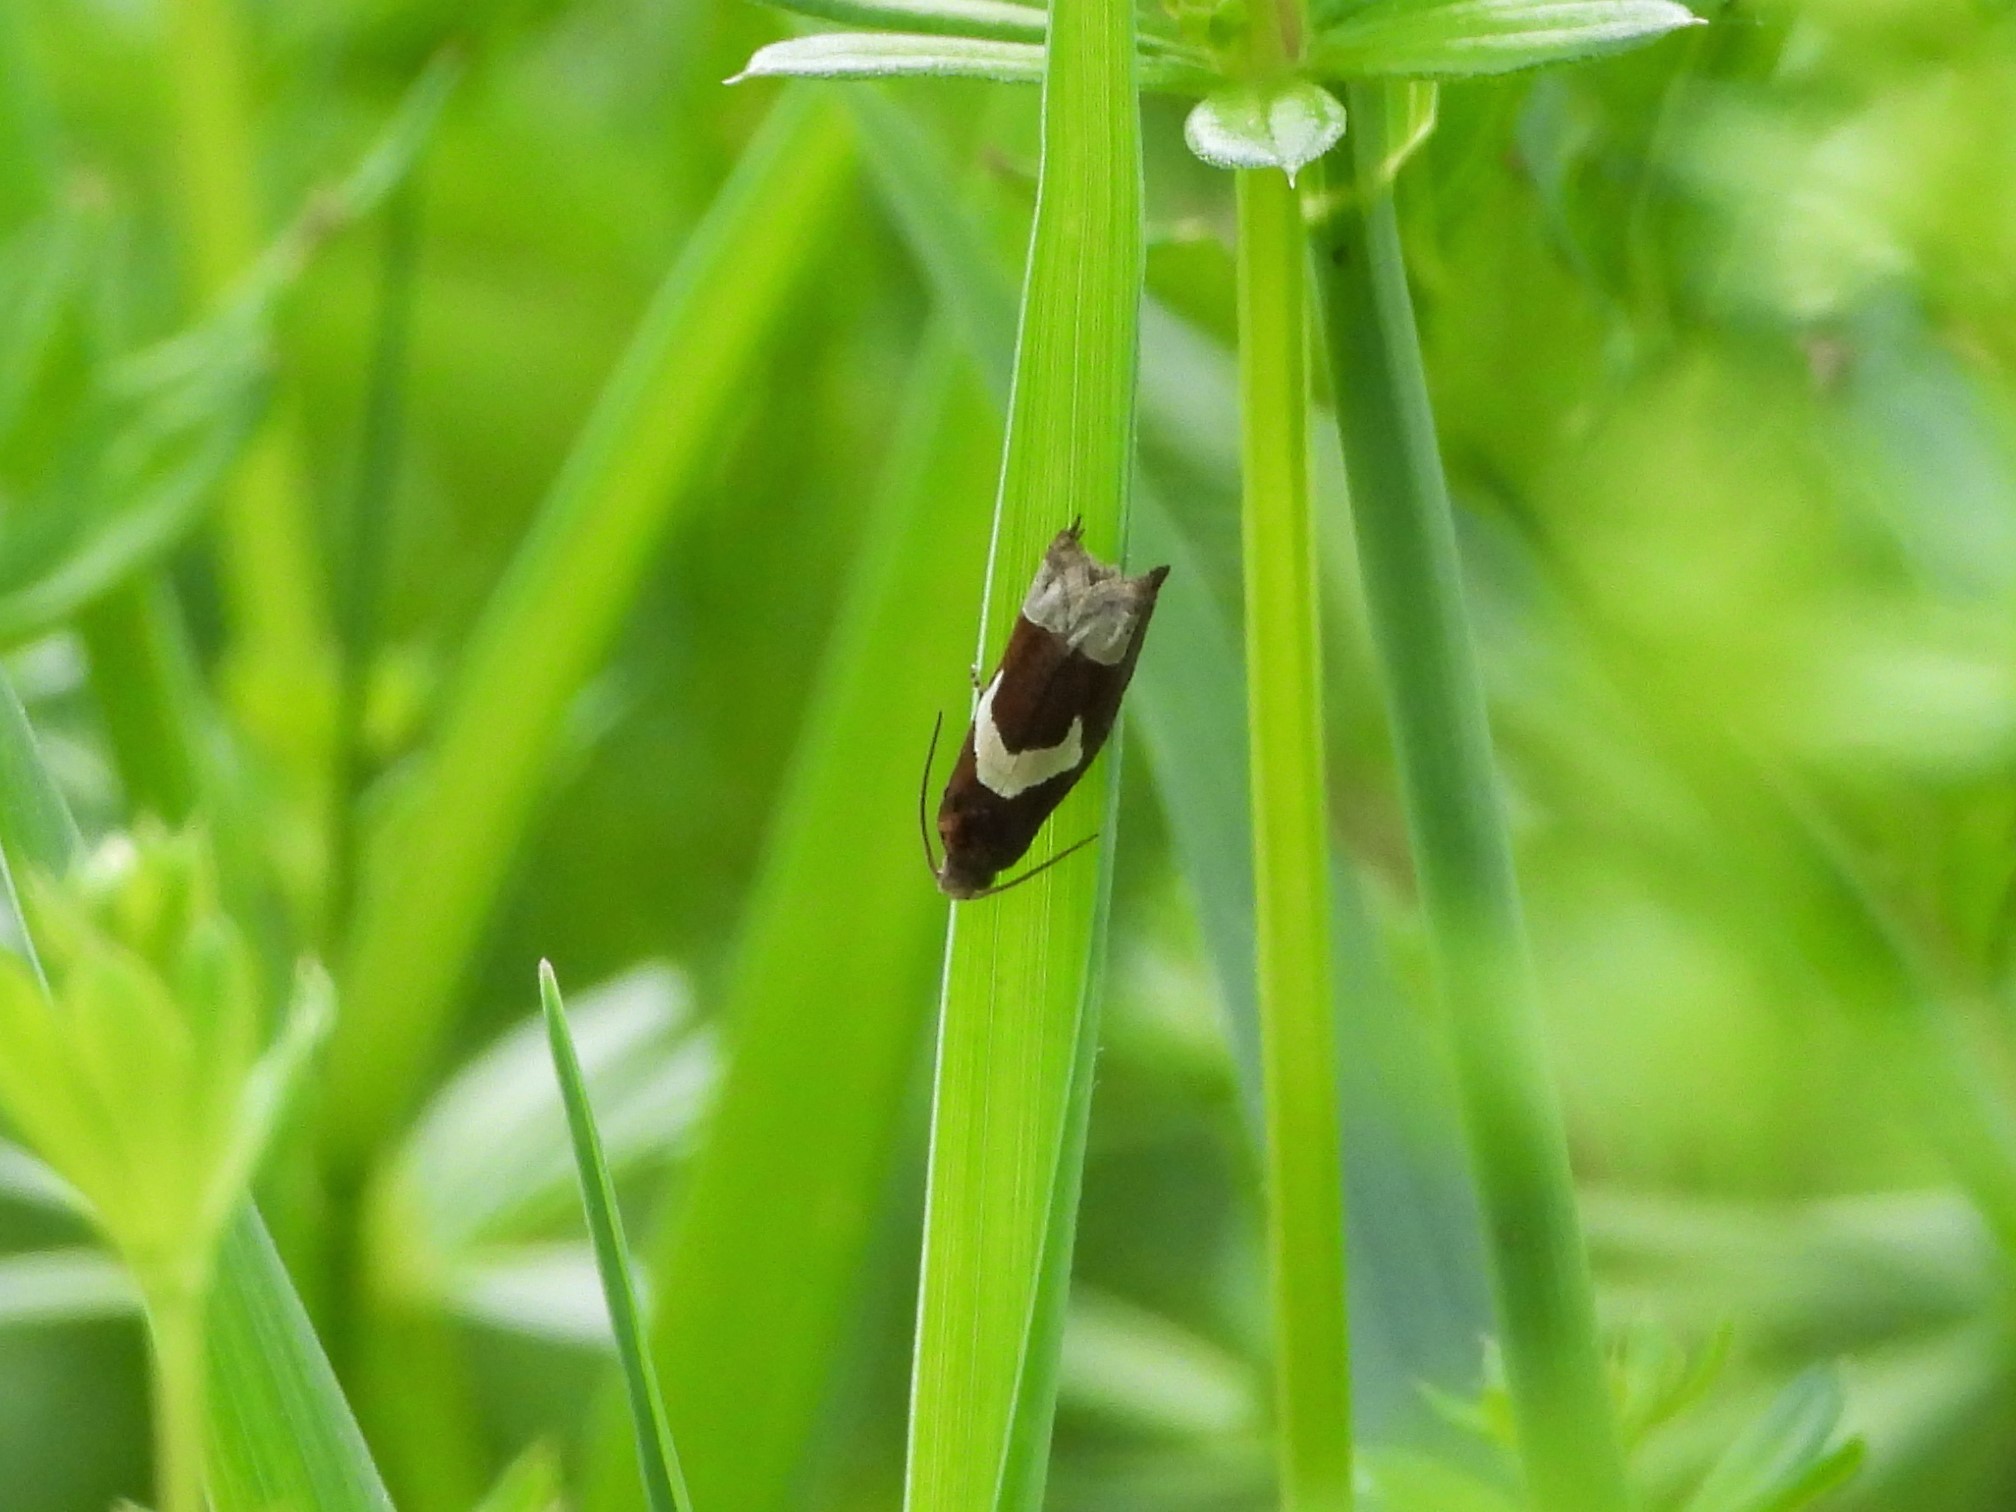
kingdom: Animalia
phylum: Arthropoda
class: Insecta
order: Lepidoptera
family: Tortricidae
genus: Epiblema
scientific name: Epiblema foenella
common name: White-foot bell
